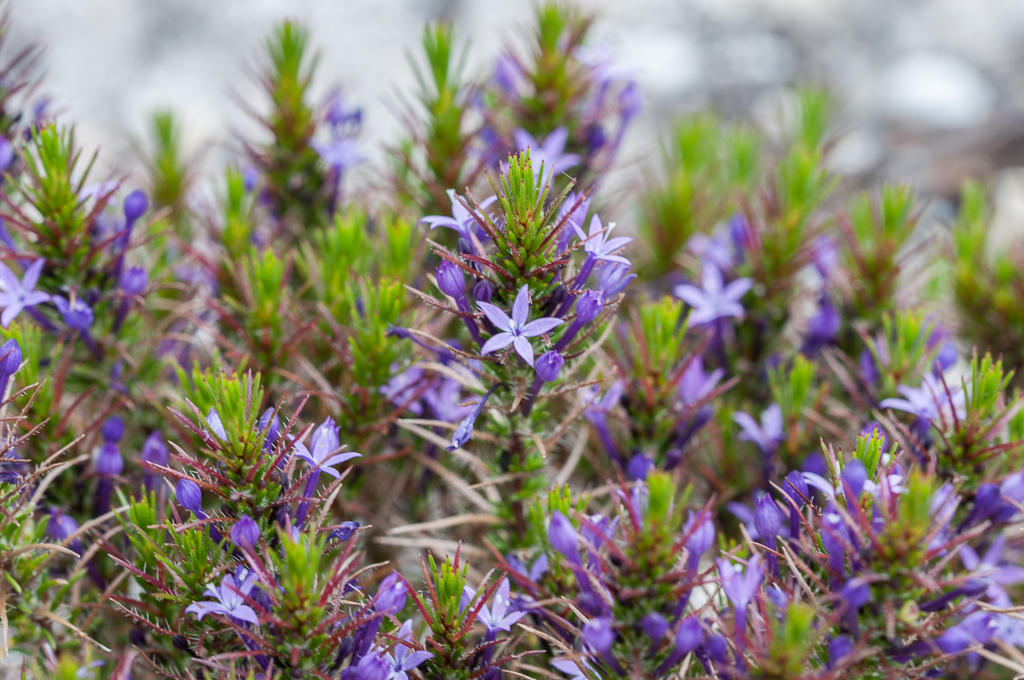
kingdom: Plantae
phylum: Tracheophyta
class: Magnoliopsida
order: Asterales
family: Campanulaceae
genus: Merciera
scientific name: Merciera tenuifolia
